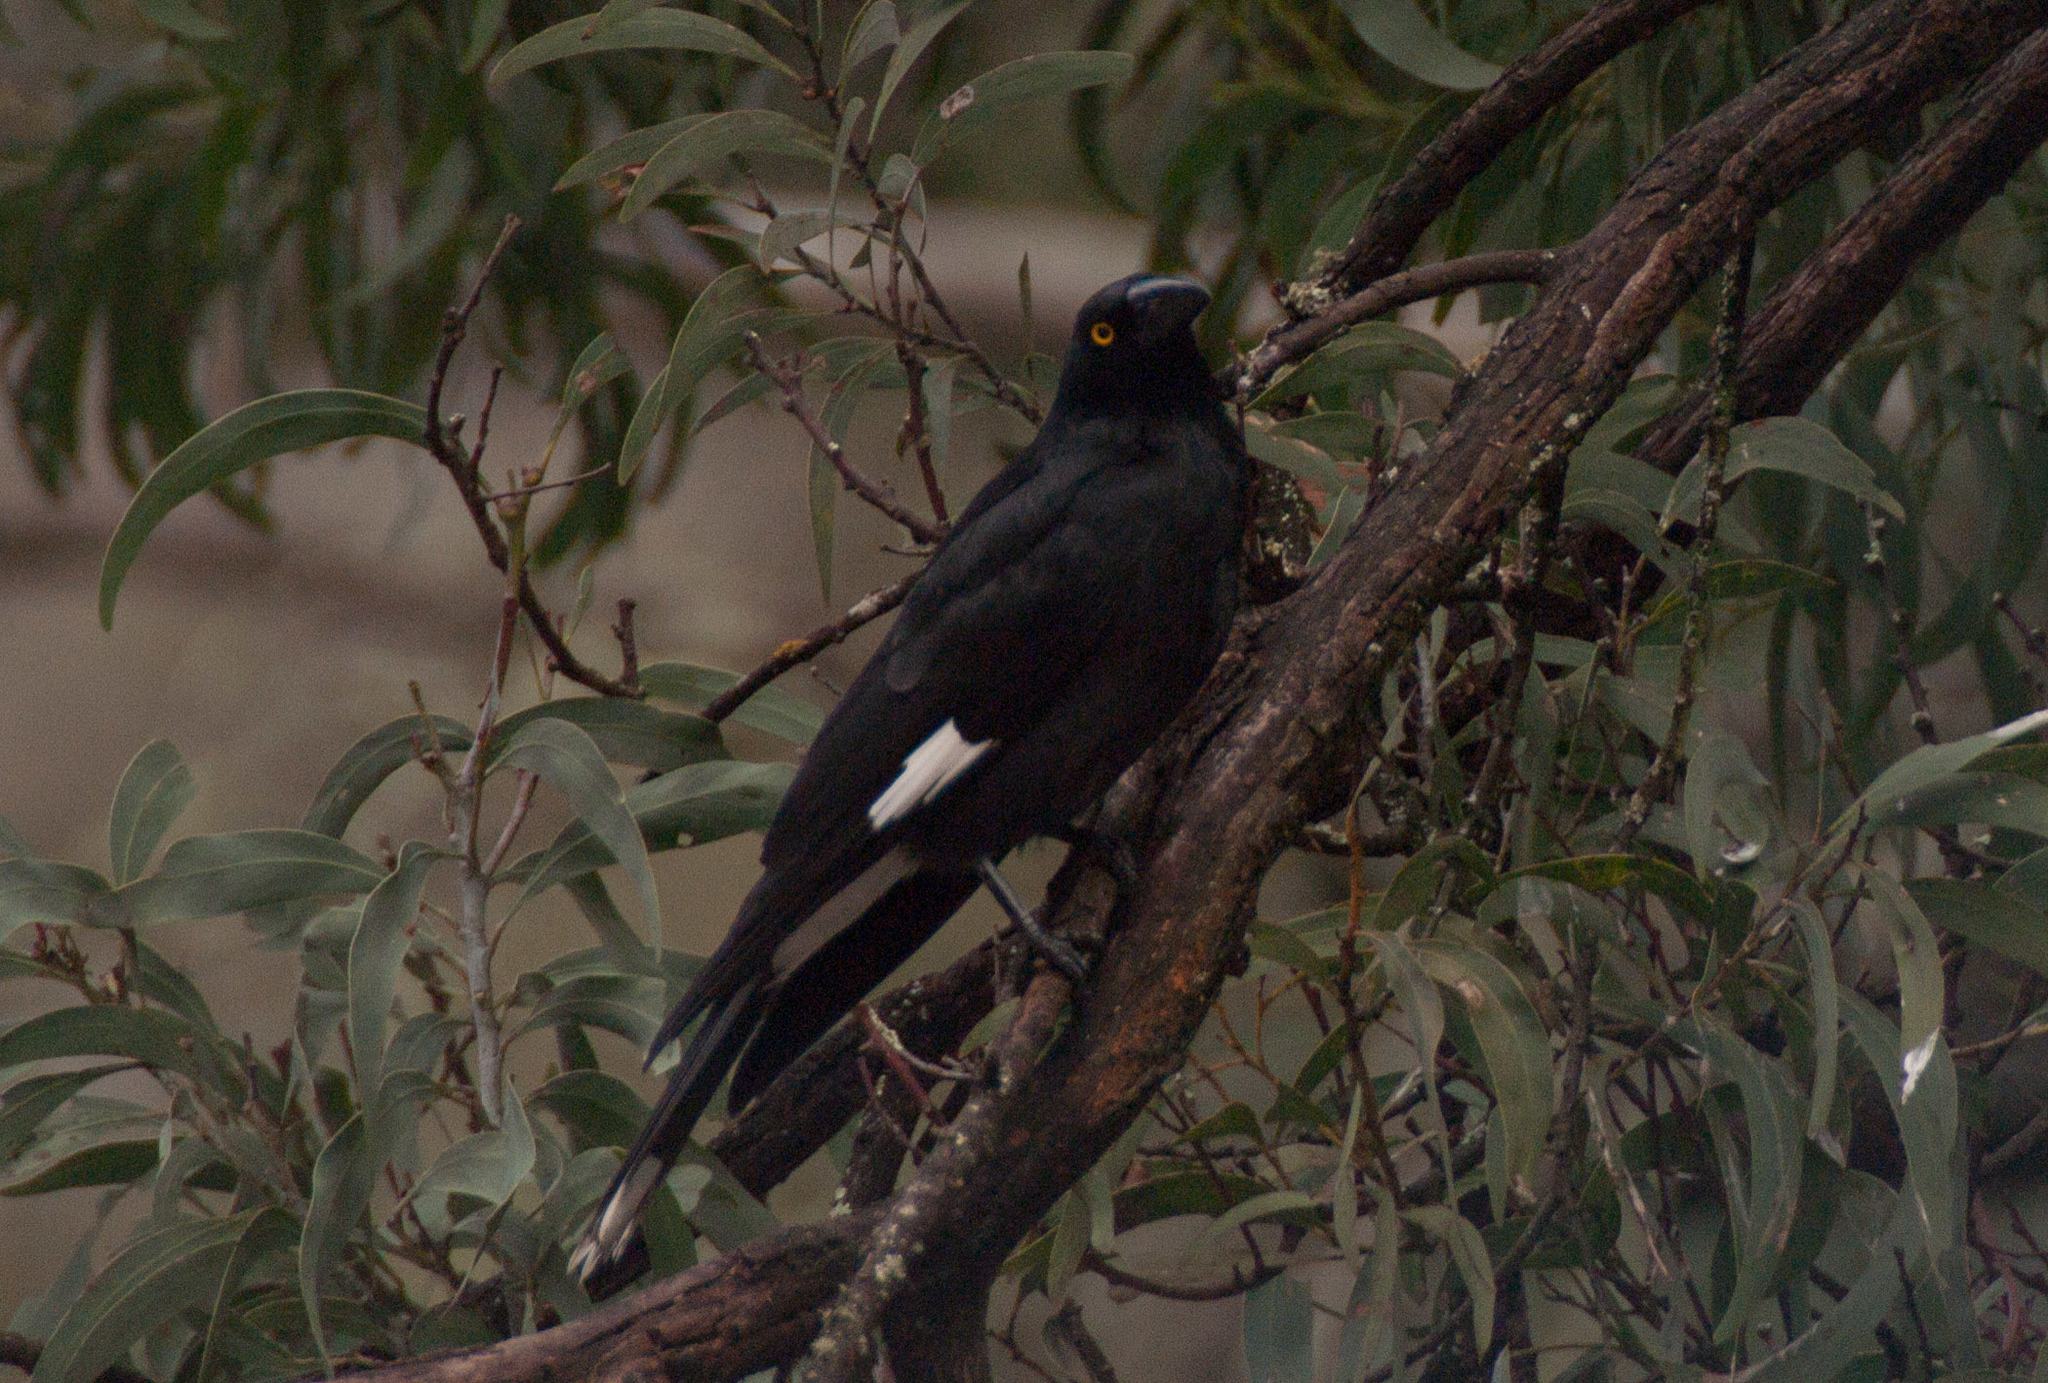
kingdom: Animalia
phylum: Chordata
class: Aves
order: Passeriformes
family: Cracticidae
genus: Strepera
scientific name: Strepera graculina
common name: Pied currawong
